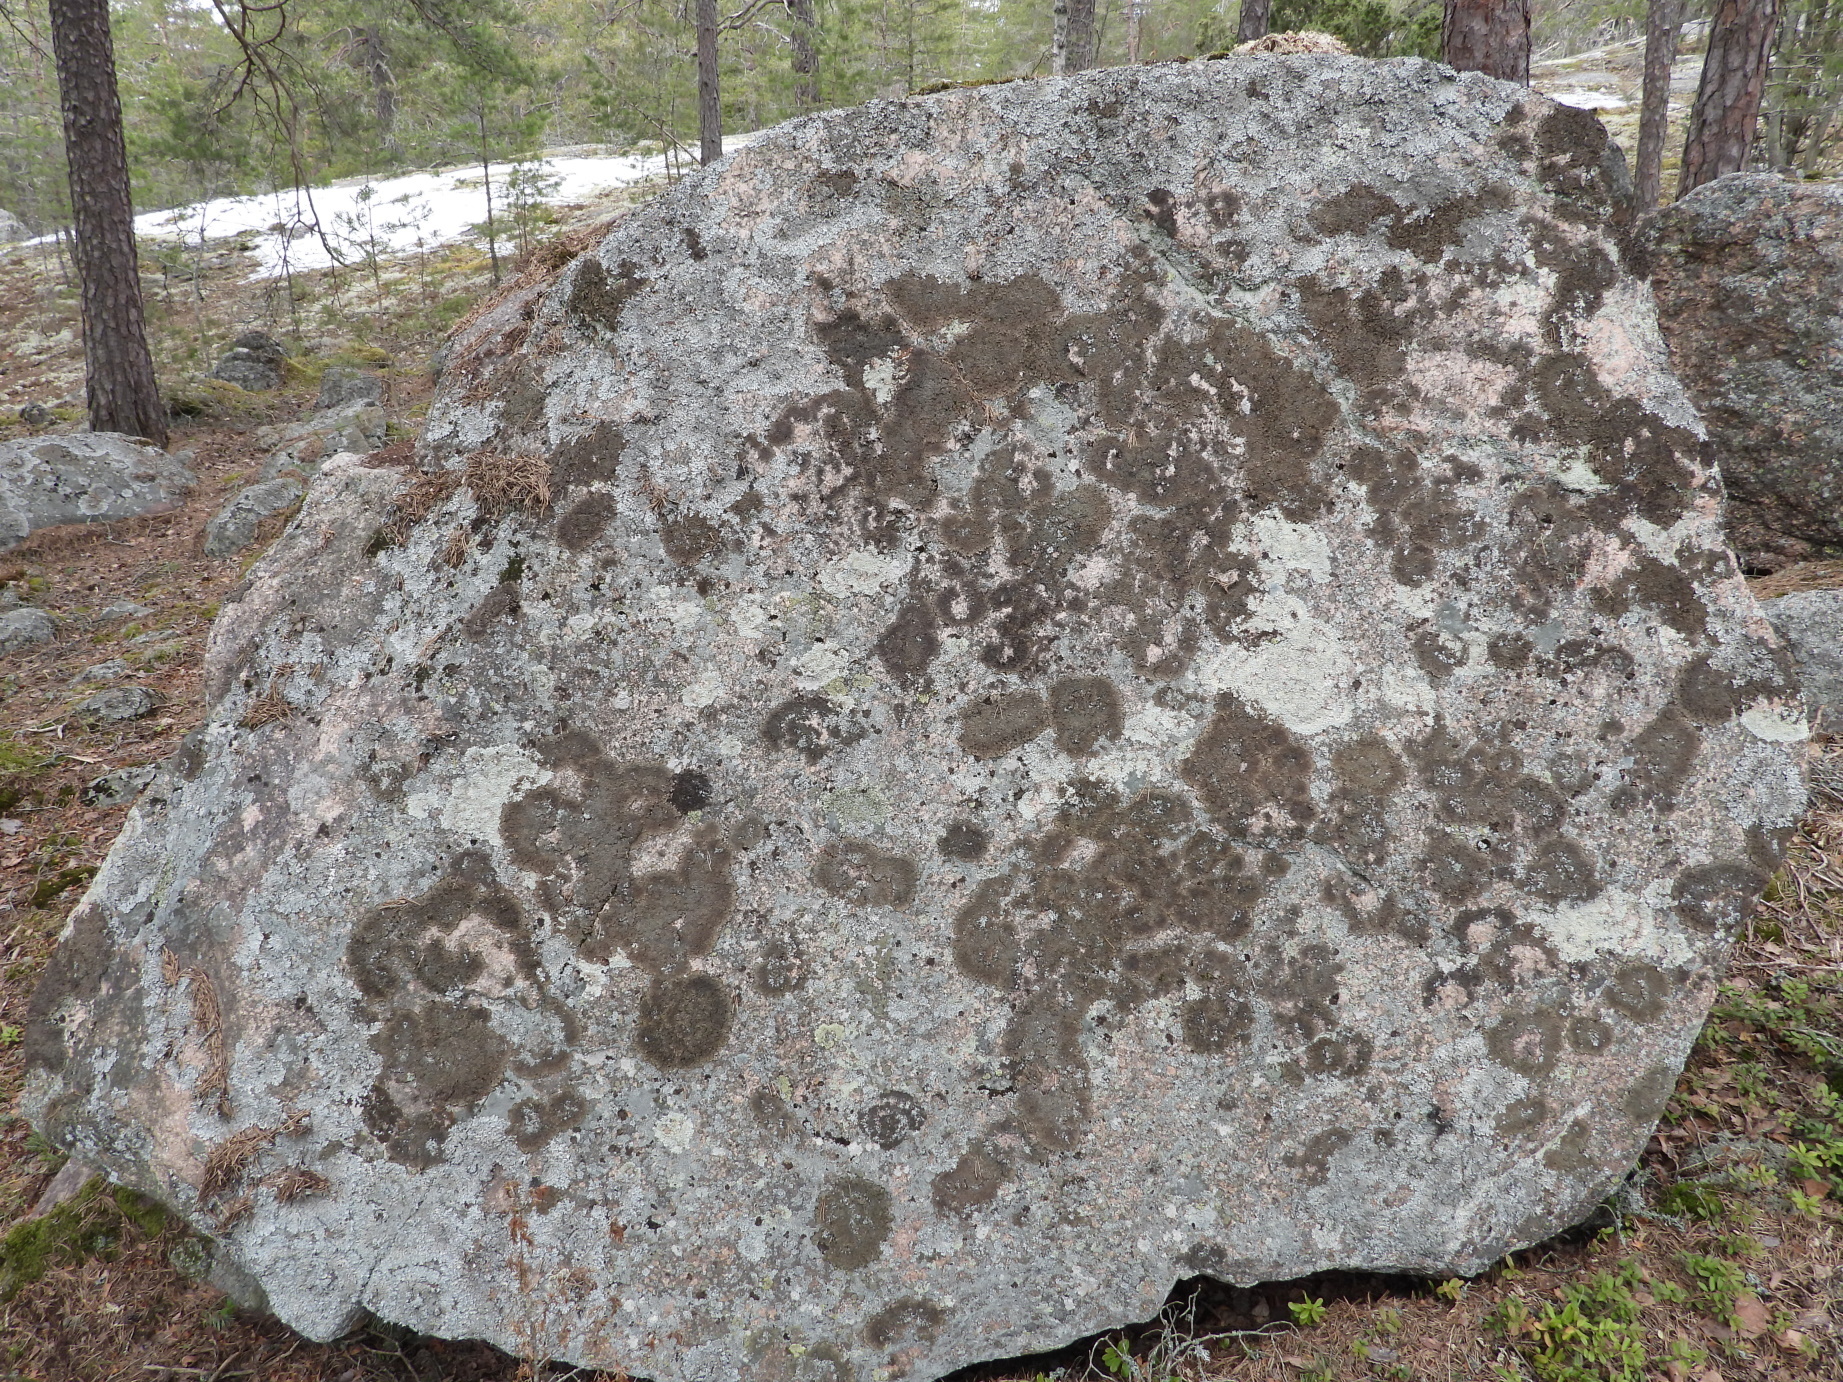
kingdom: Fungi
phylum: Ascomycota
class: Lecanoromycetes
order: Lecanorales
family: Parmeliaceae
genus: Parmelia
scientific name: Parmelia omphalodes
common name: Smoky crottle
